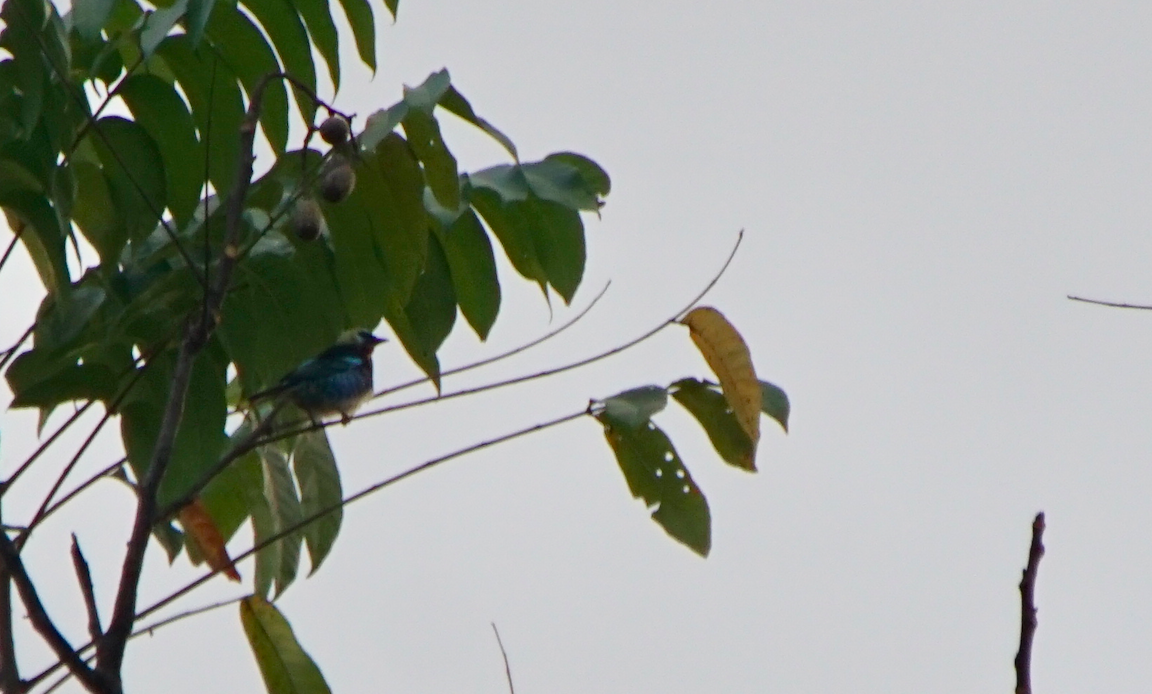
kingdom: Animalia
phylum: Chordata
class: Aves
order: Passeriformes
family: Thraupidae
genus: Stilpnia
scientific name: Stilpnia larvata
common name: Golden-hooded tanager
